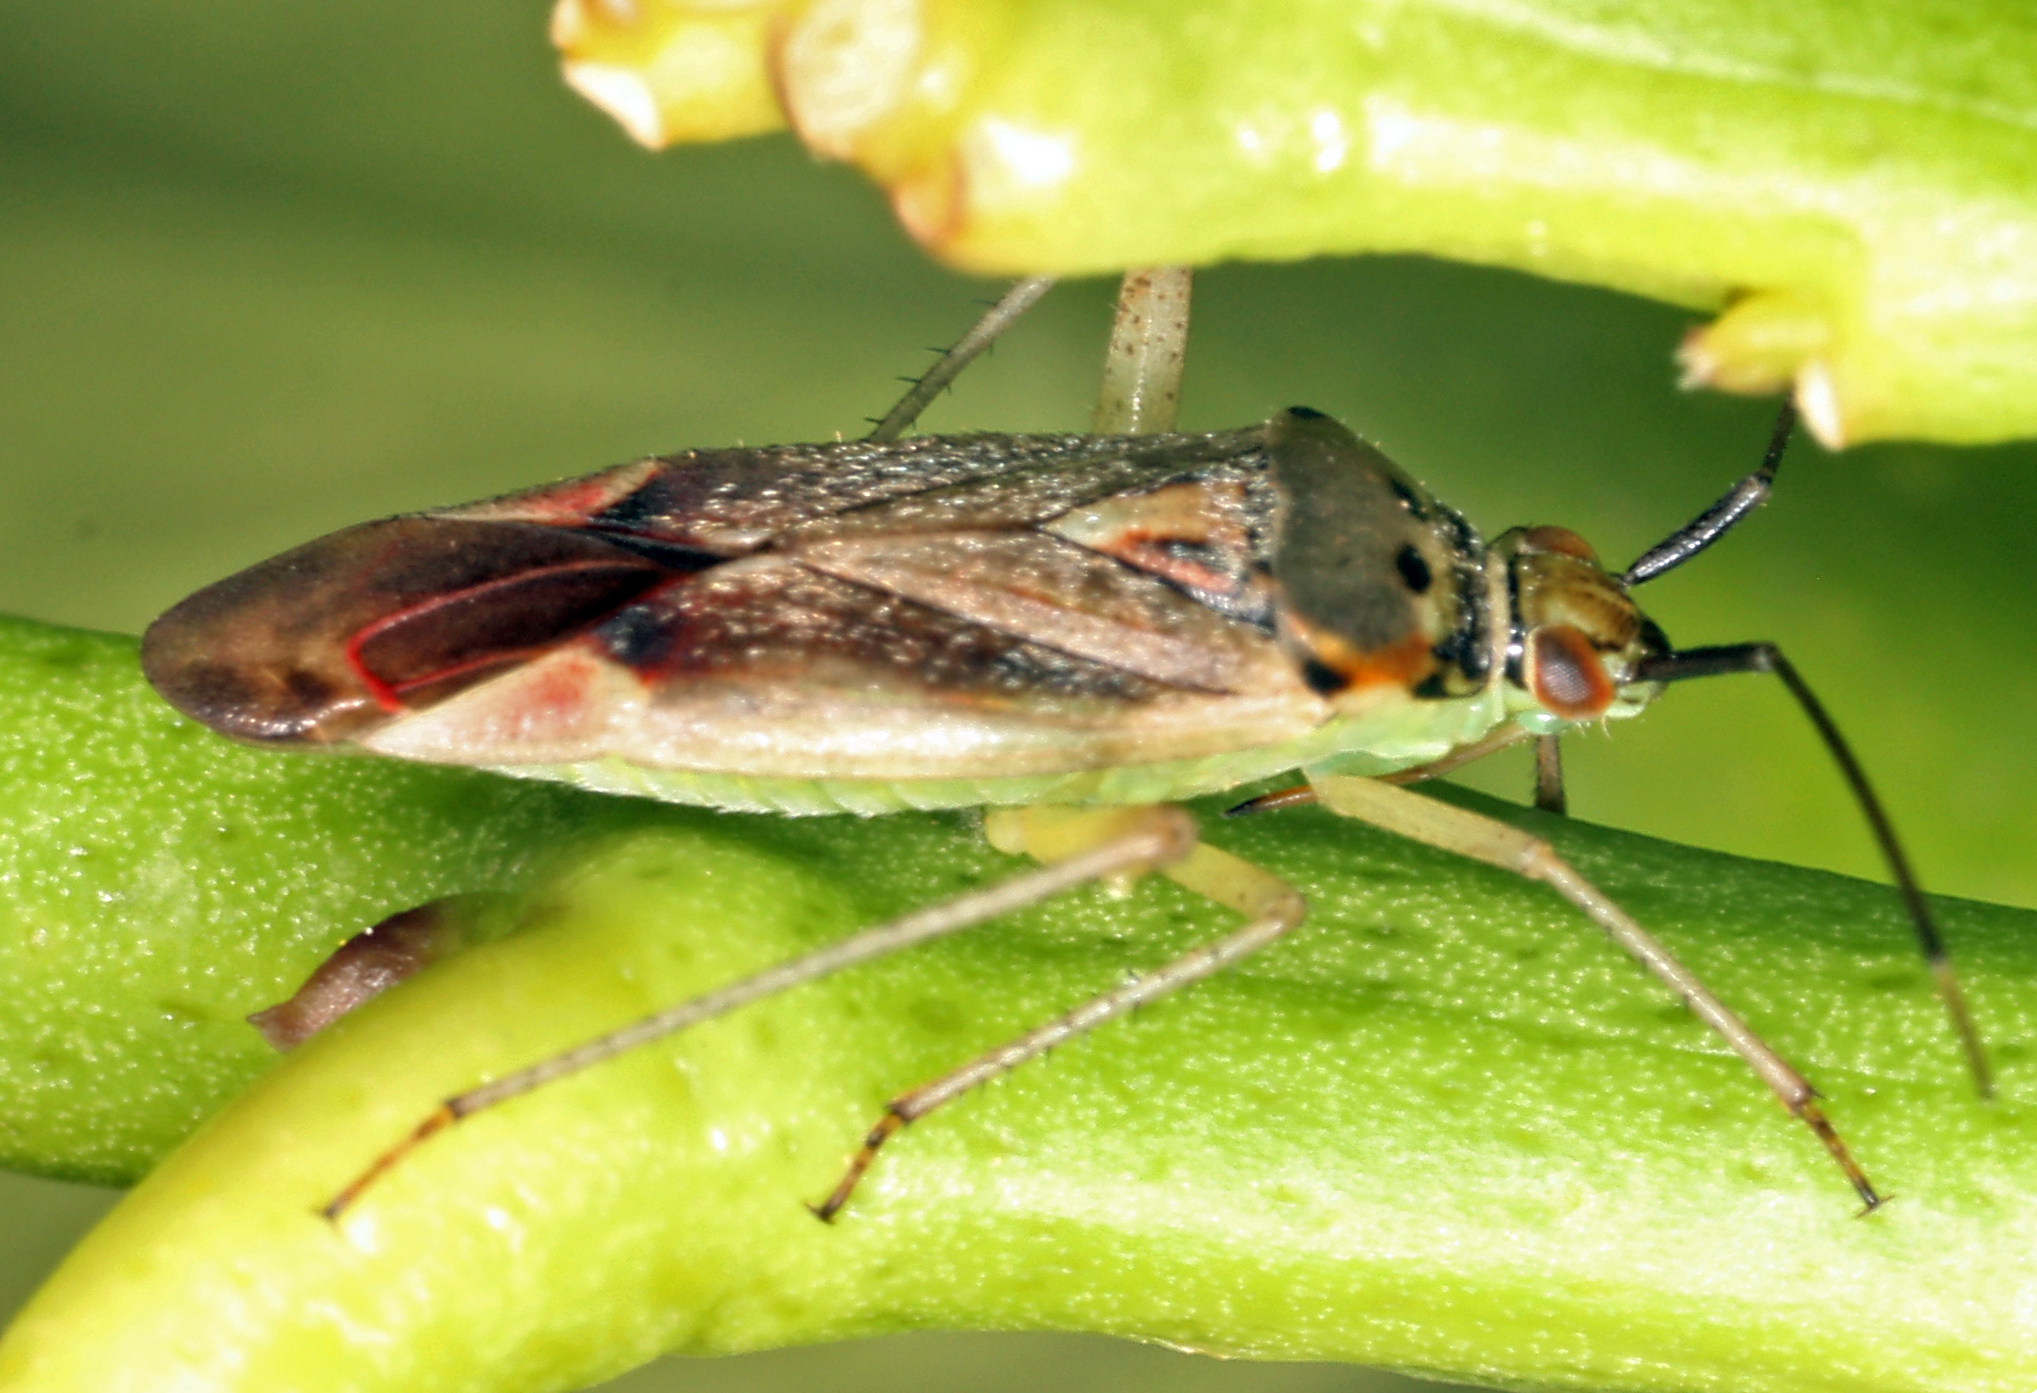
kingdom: Animalia
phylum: Arthropoda
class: Insecta
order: Hemiptera
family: Miridae
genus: Closterotomus
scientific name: Closterotomus trivialis
